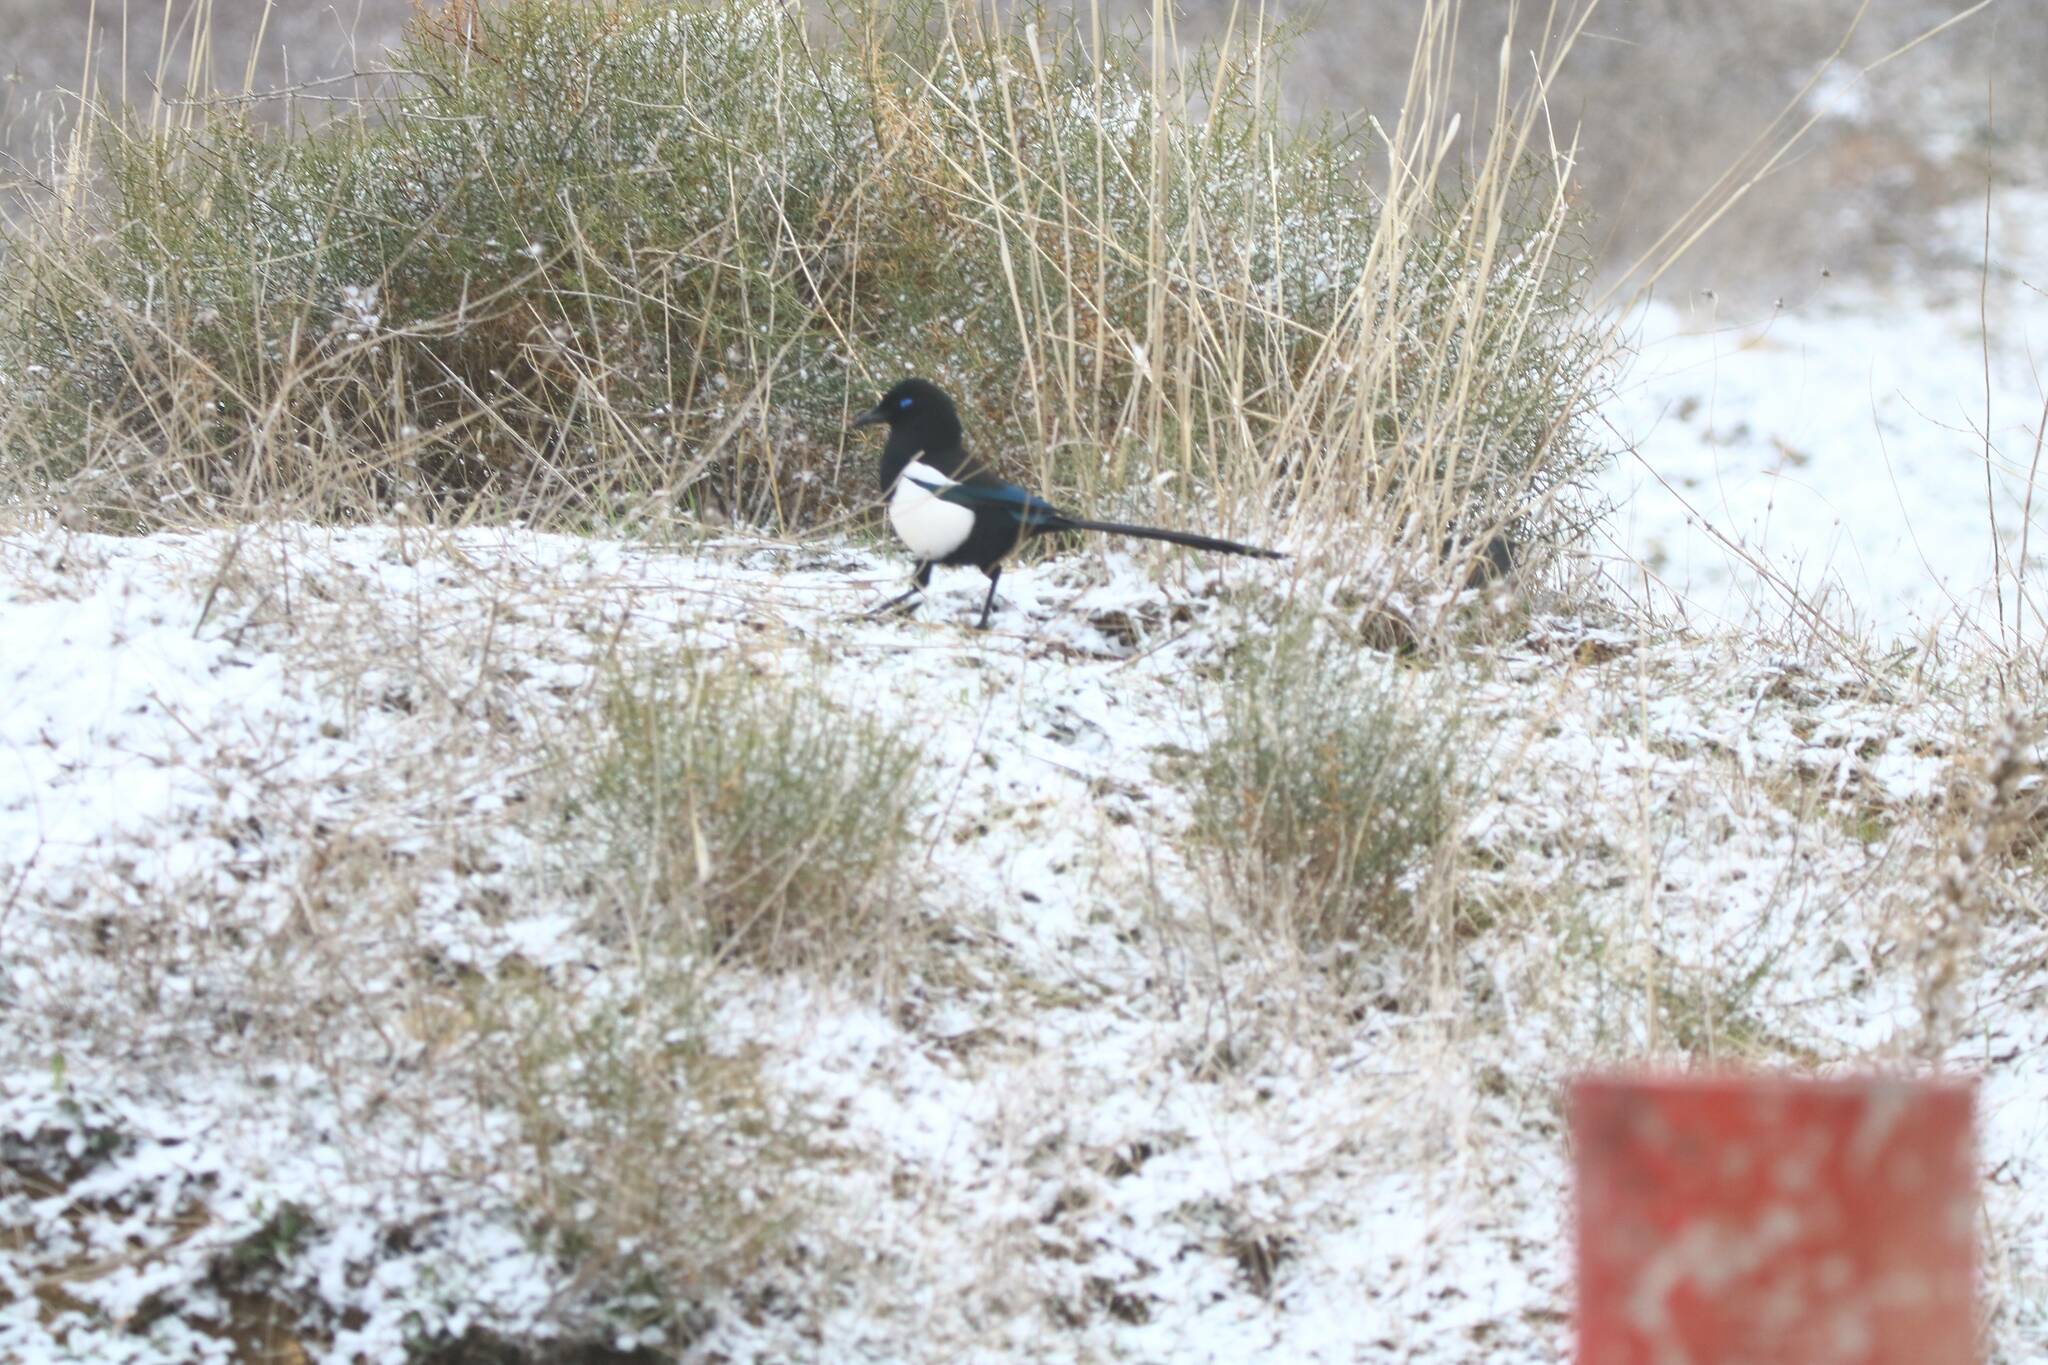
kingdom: Animalia
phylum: Chordata
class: Aves
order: Passeriformes
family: Corvidae
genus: Pica
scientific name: Pica mauritanica
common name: Maghreb magpie
